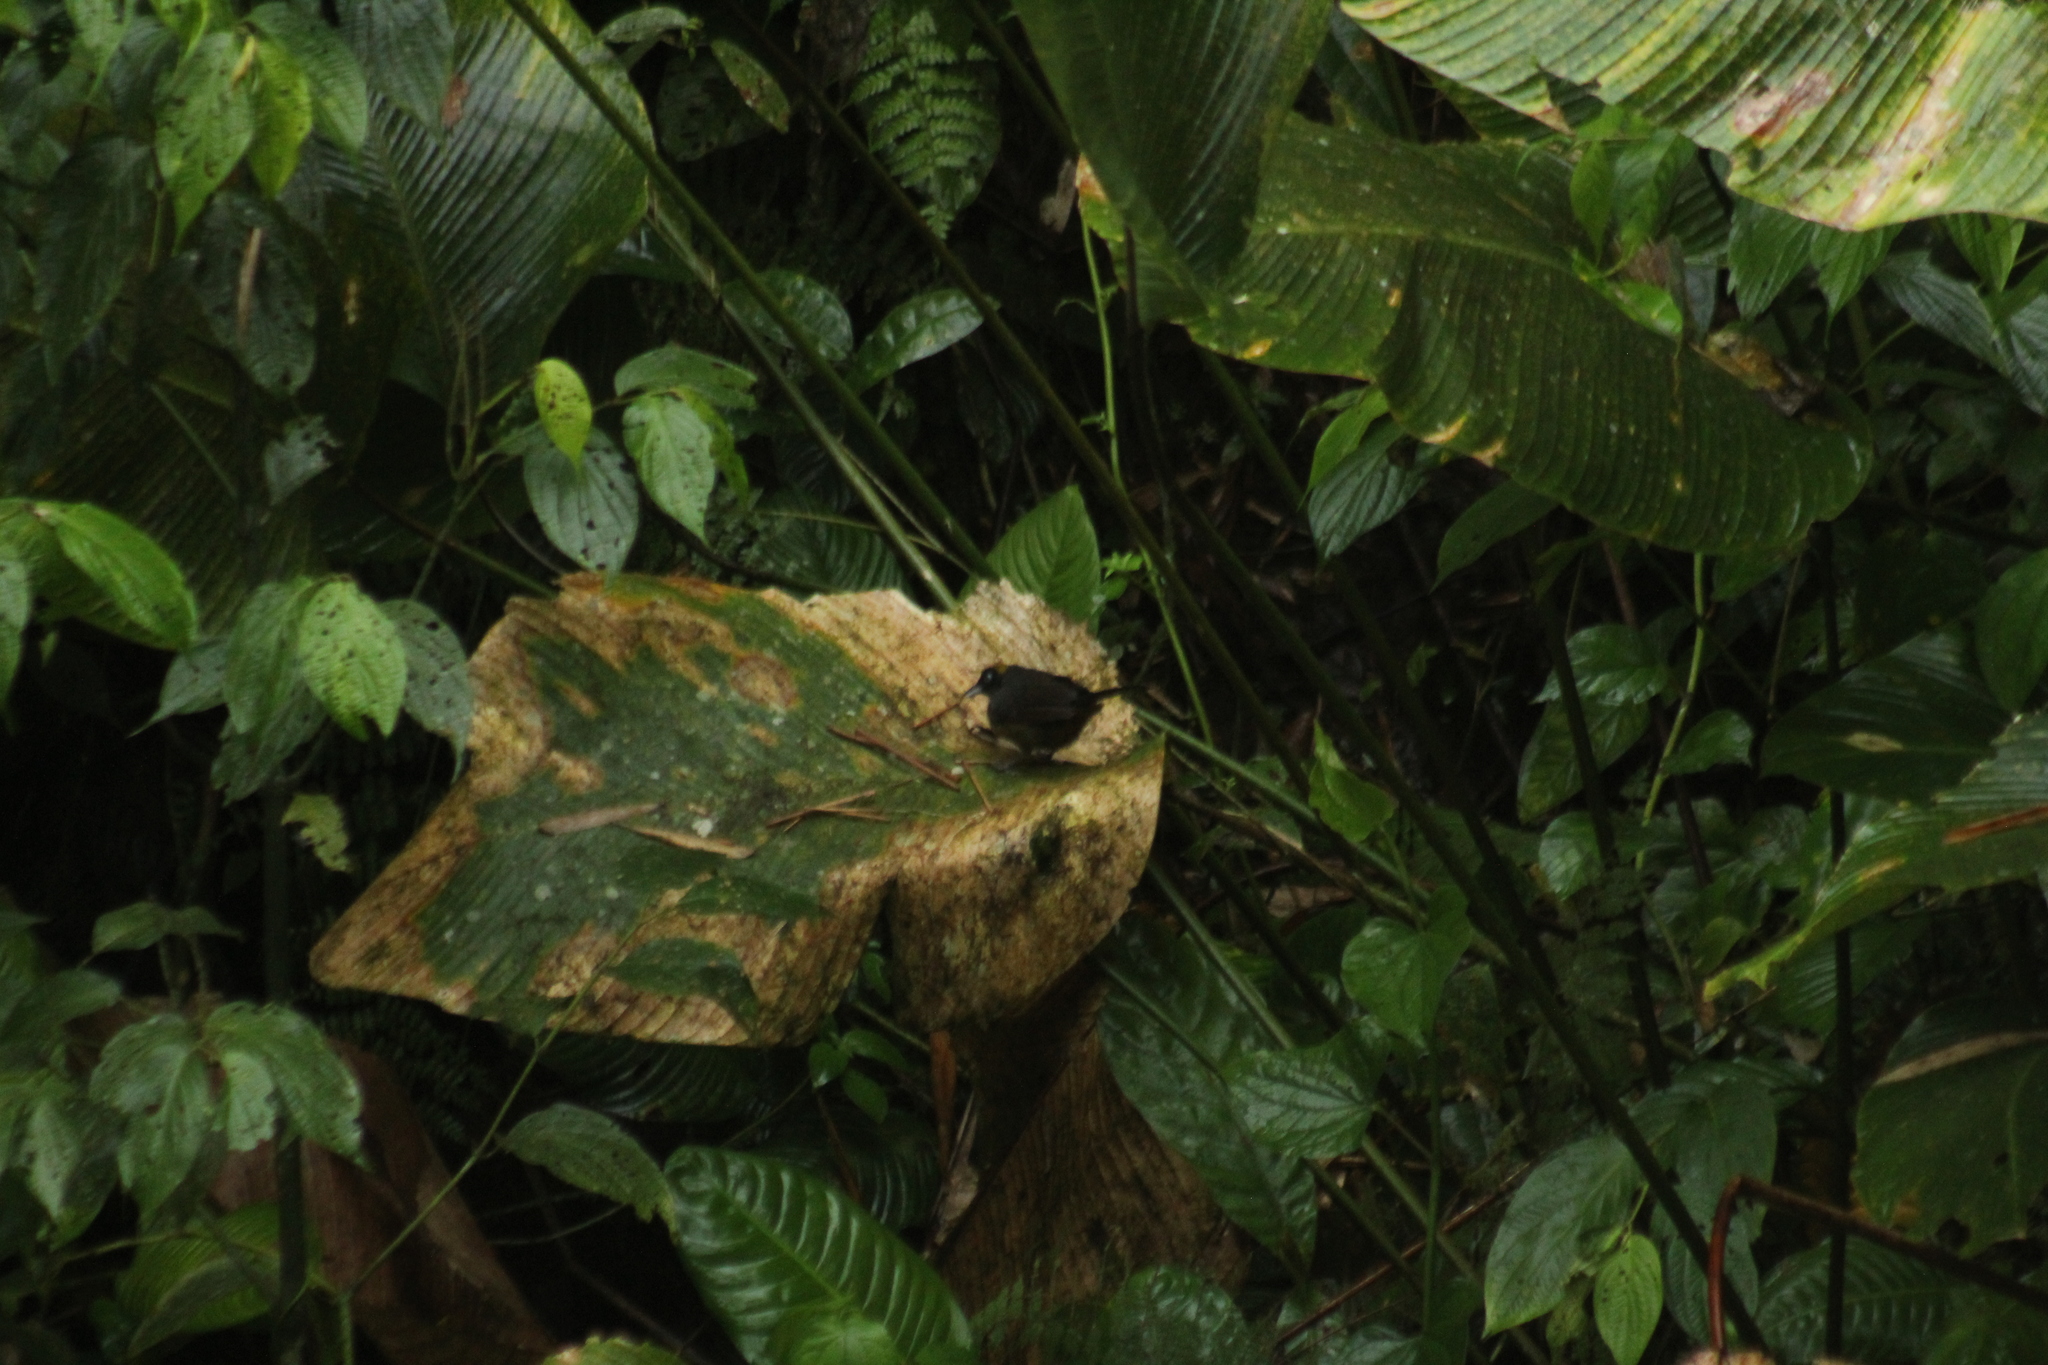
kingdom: Animalia
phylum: Chordata
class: Aves
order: Passeriformes
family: Mitrospingidae
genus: Mitrospingus
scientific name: Mitrospingus cassinii
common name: Dusky-faced tanager
